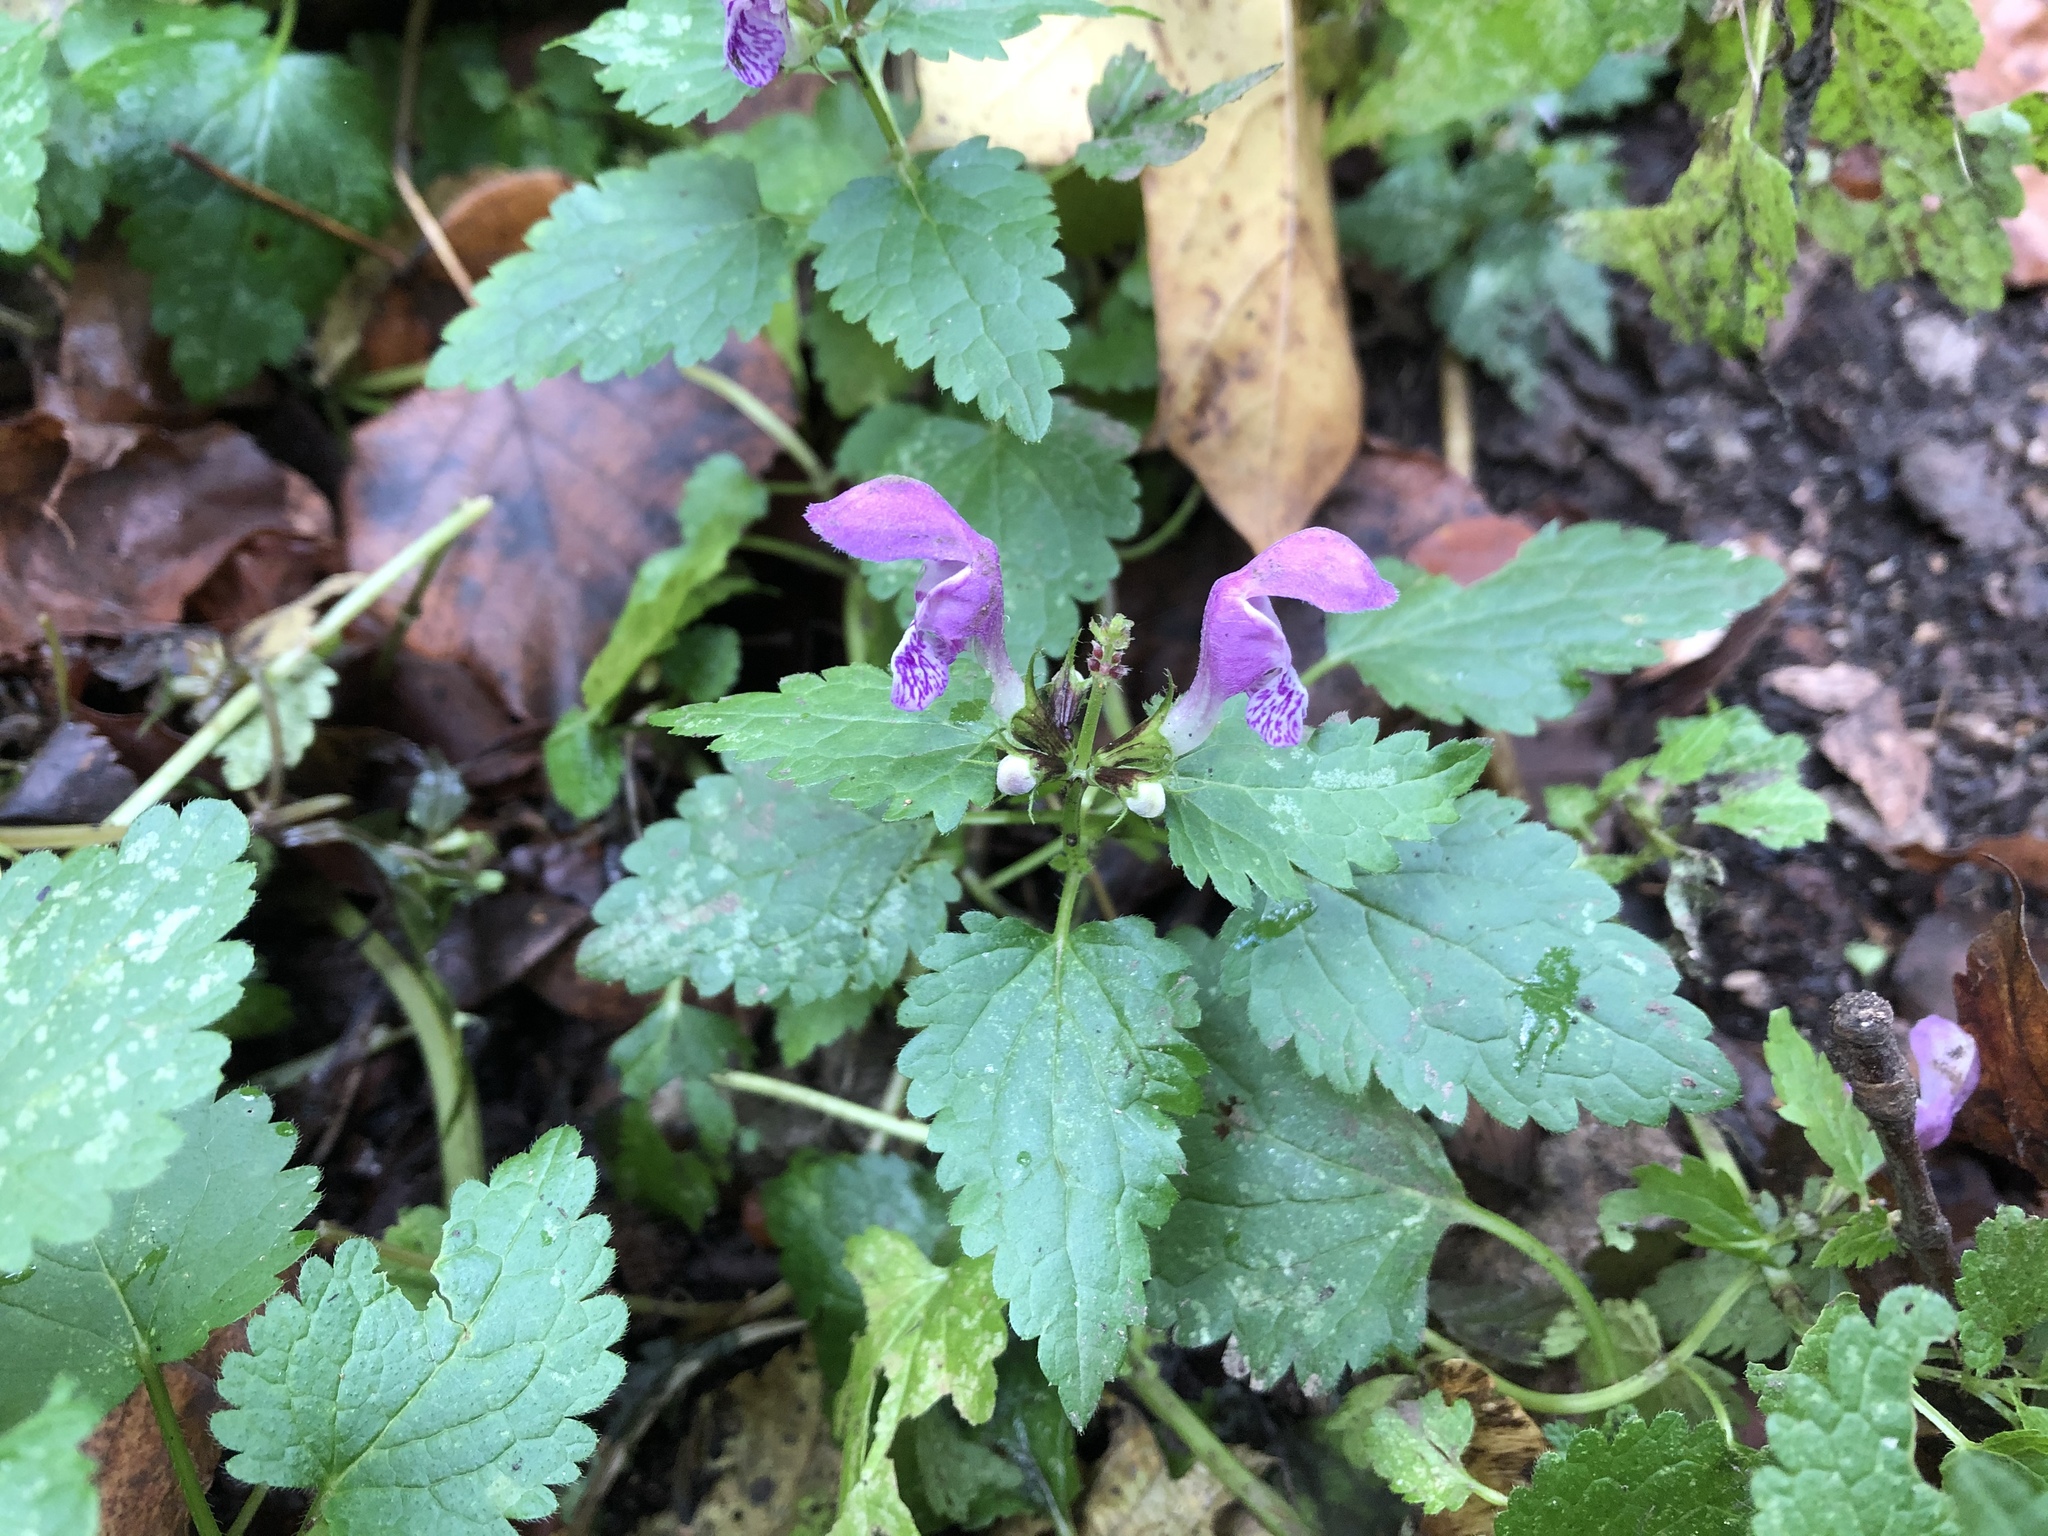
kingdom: Plantae
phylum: Tracheophyta
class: Magnoliopsida
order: Lamiales
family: Lamiaceae
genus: Lamium
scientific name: Lamium maculatum
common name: Spotted dead-nettle
